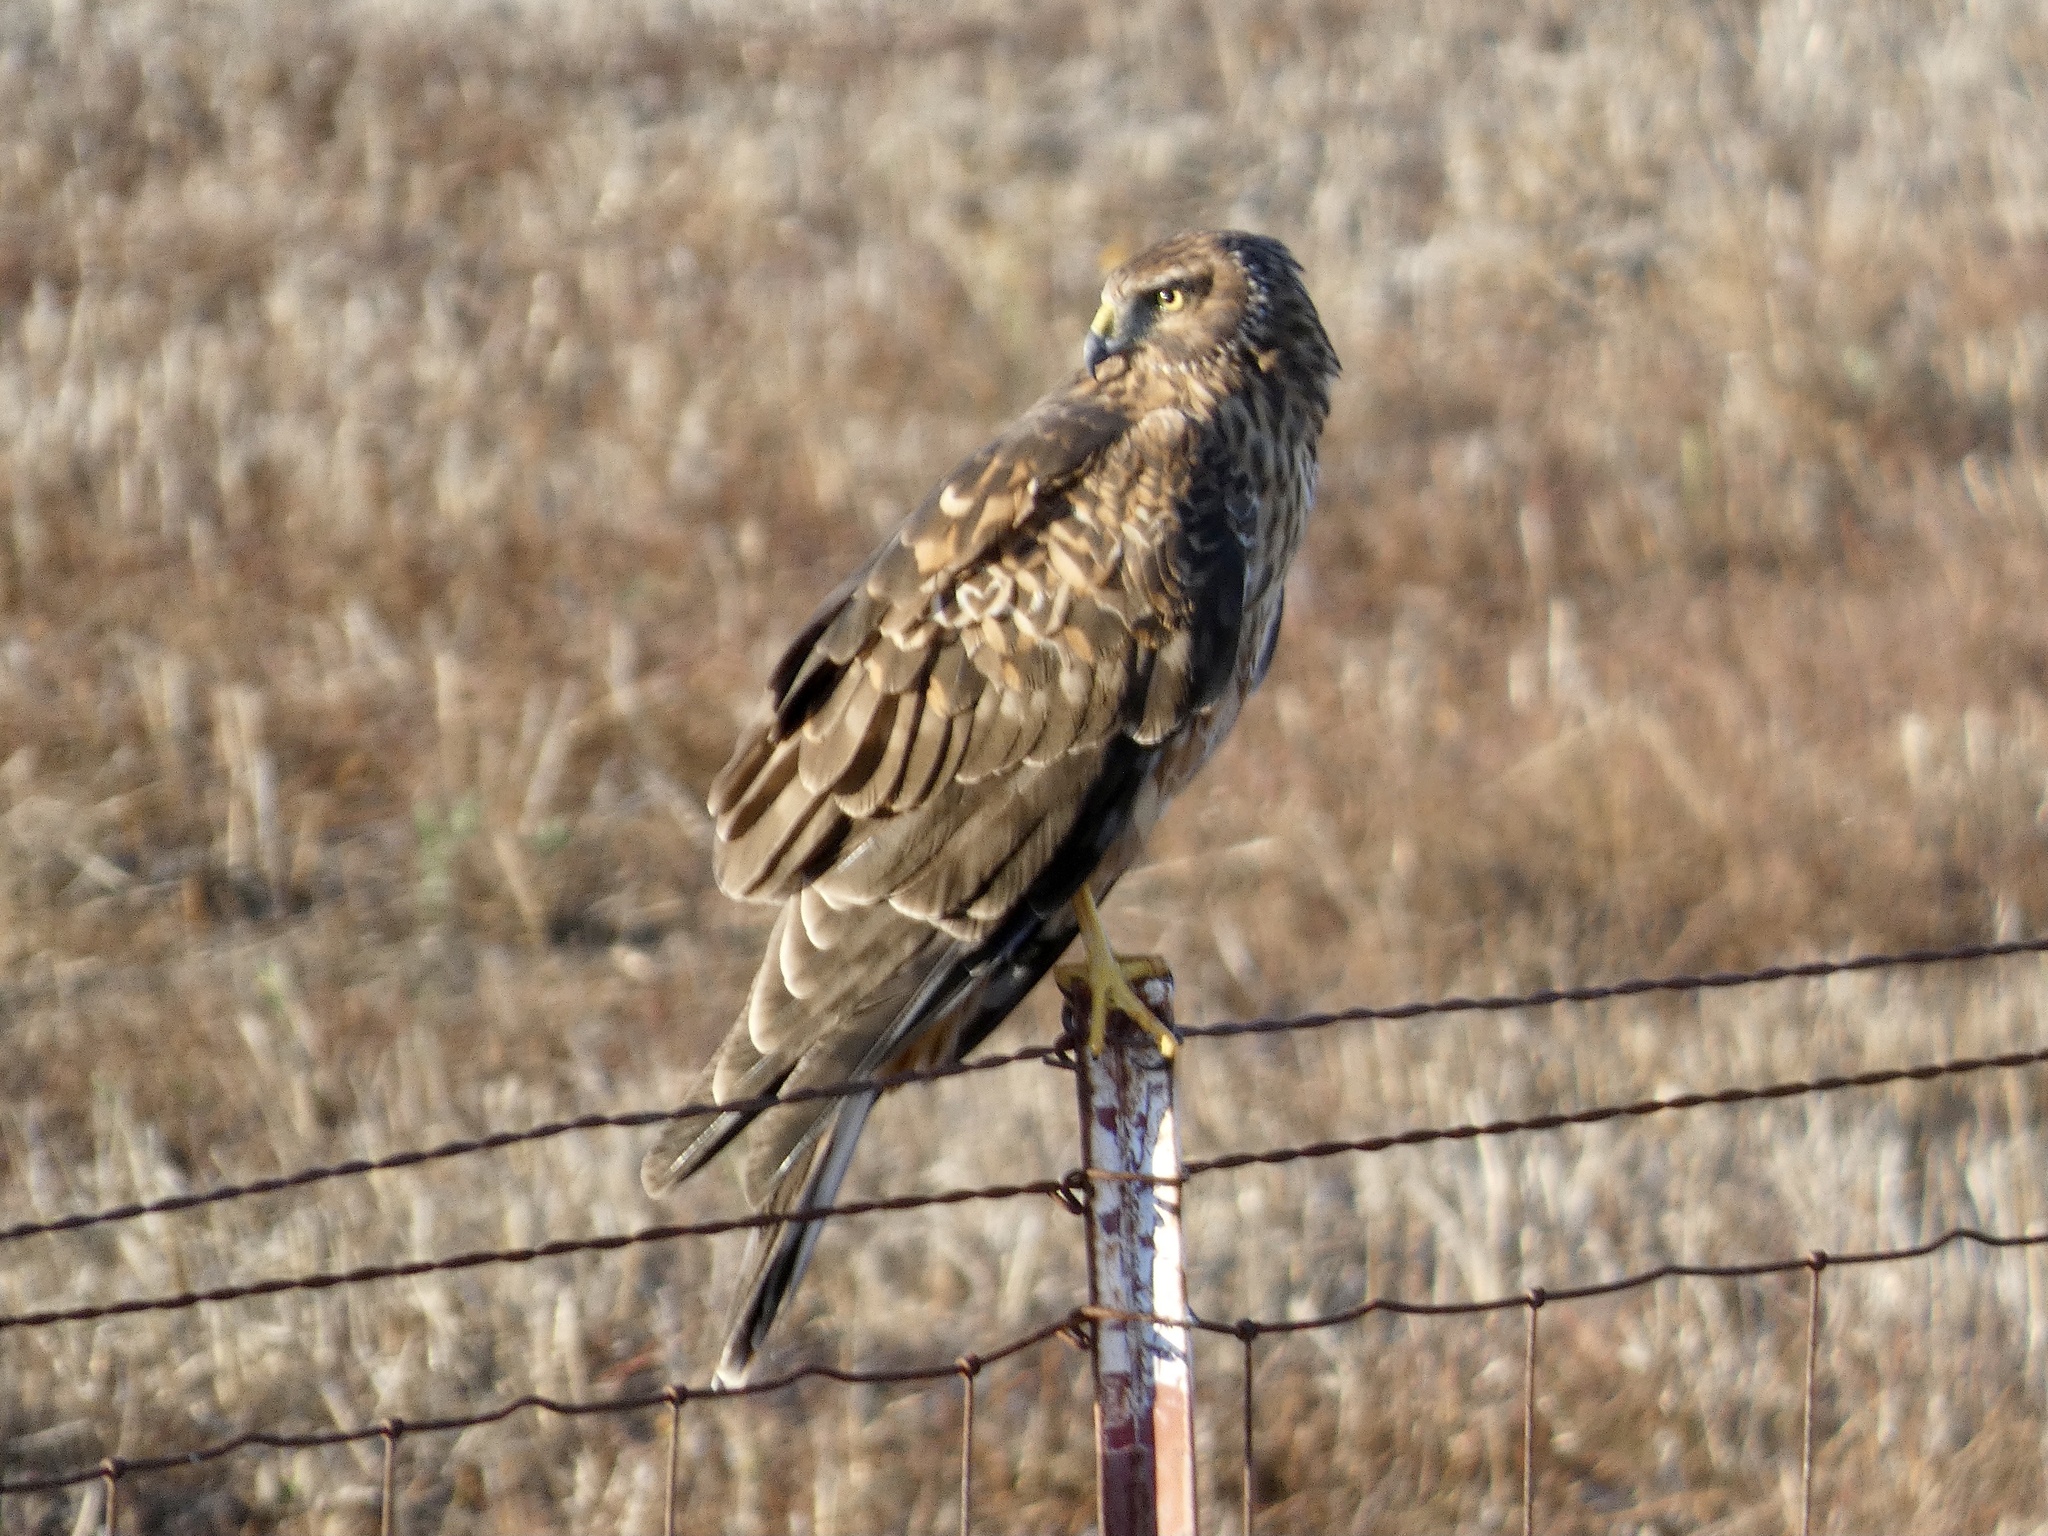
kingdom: Animalia
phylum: Chordata
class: Aves
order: Accipitriformes
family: Accipitridae
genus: Circus
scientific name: Circus cyaneus
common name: Hen harrier
